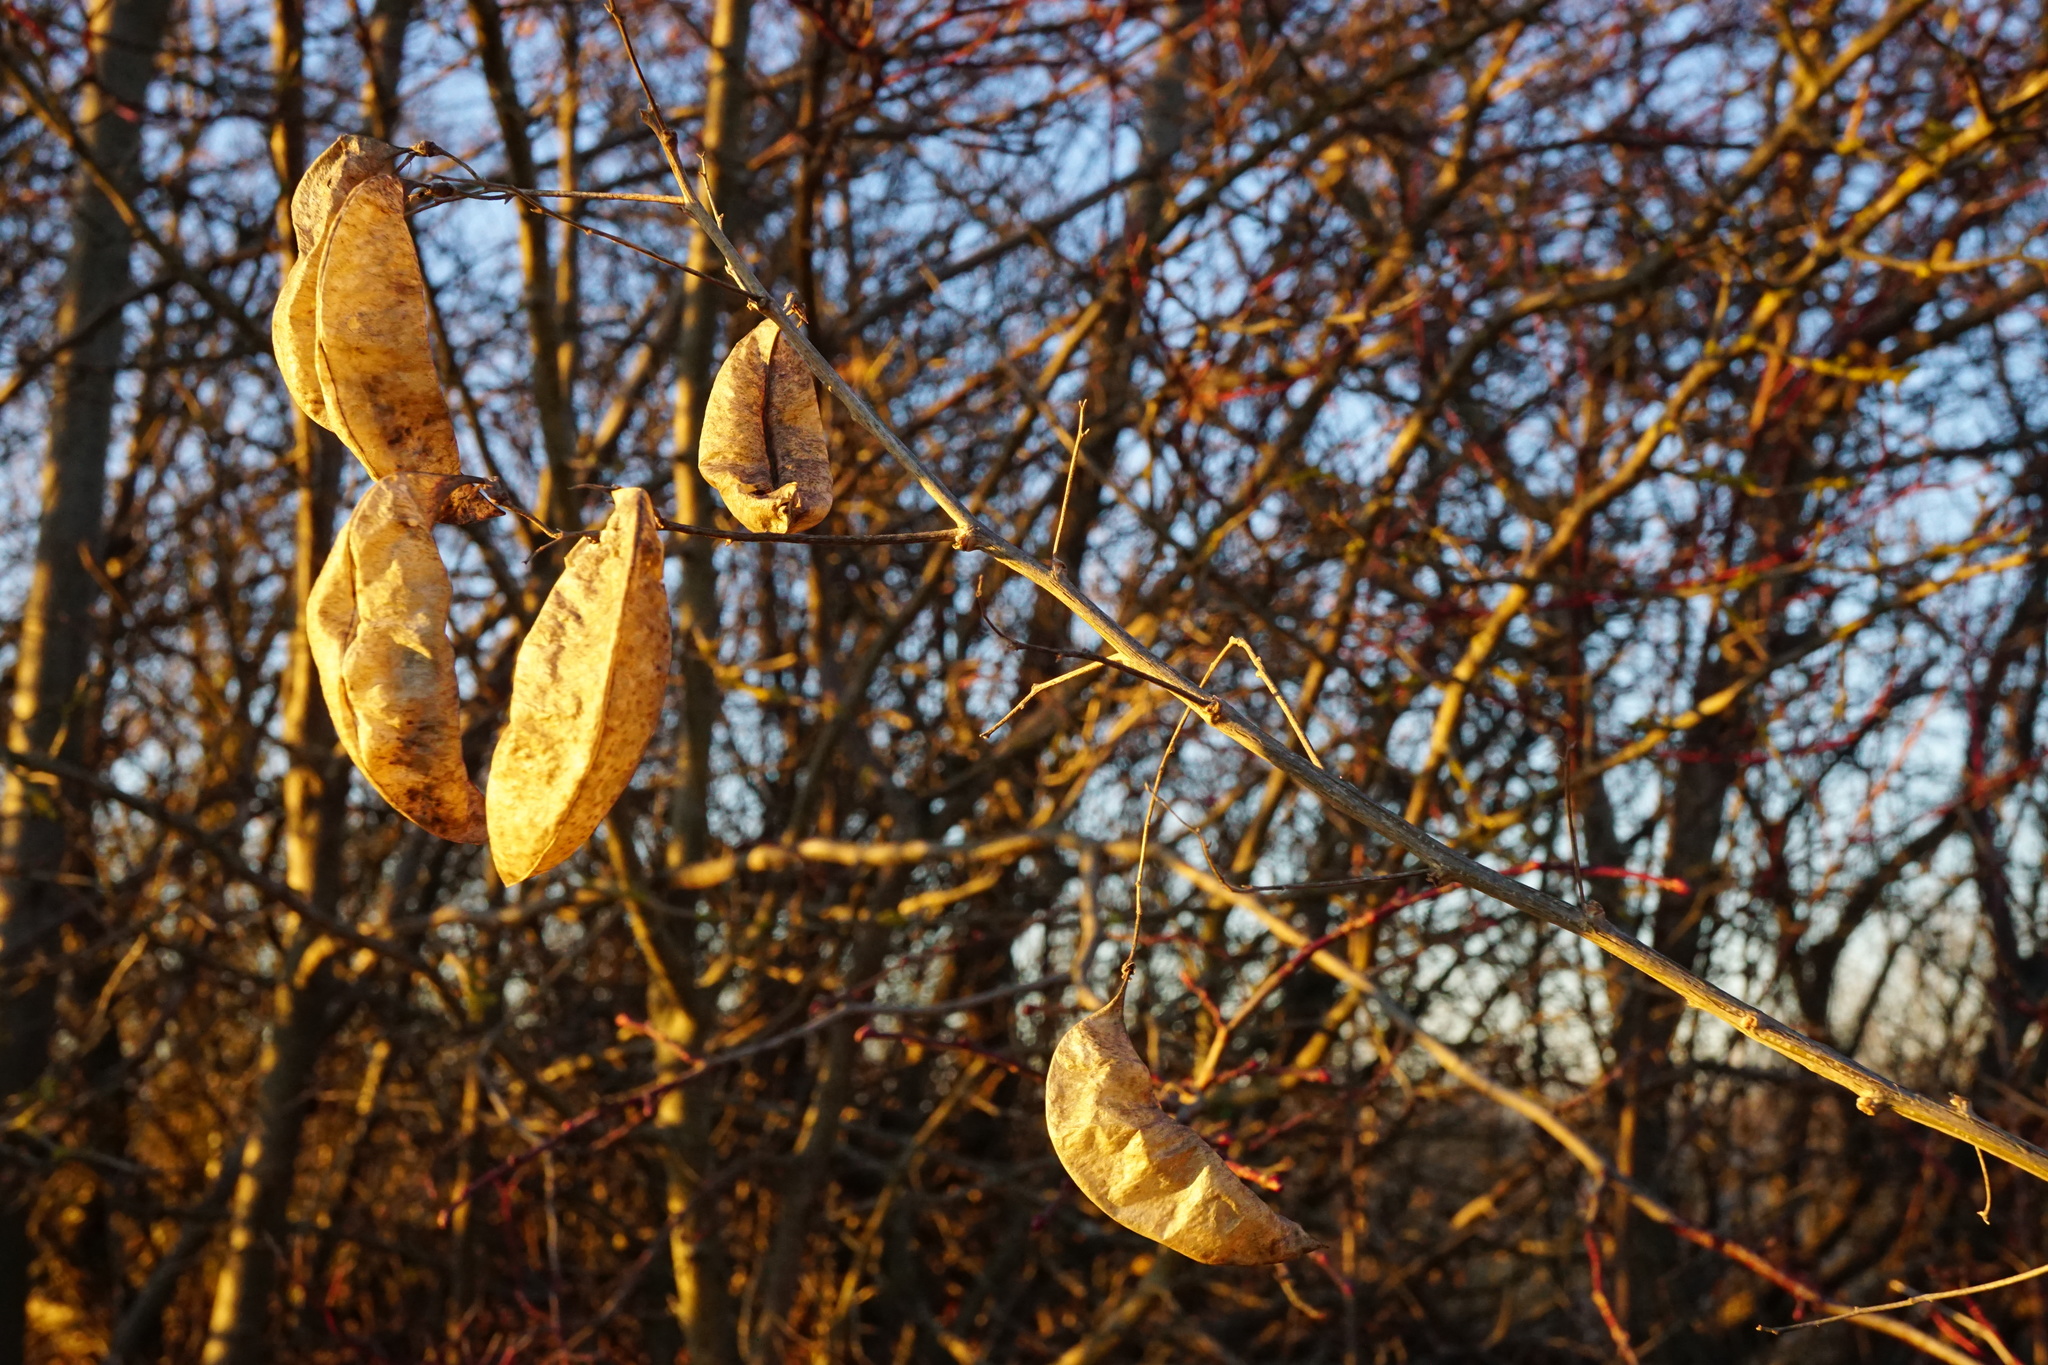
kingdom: Plantae
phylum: Tracheophyta
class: Magnoliopsida
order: Fabales
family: Fabaceae
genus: Colutea
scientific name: Colutea arborescens
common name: Bladder-senna
